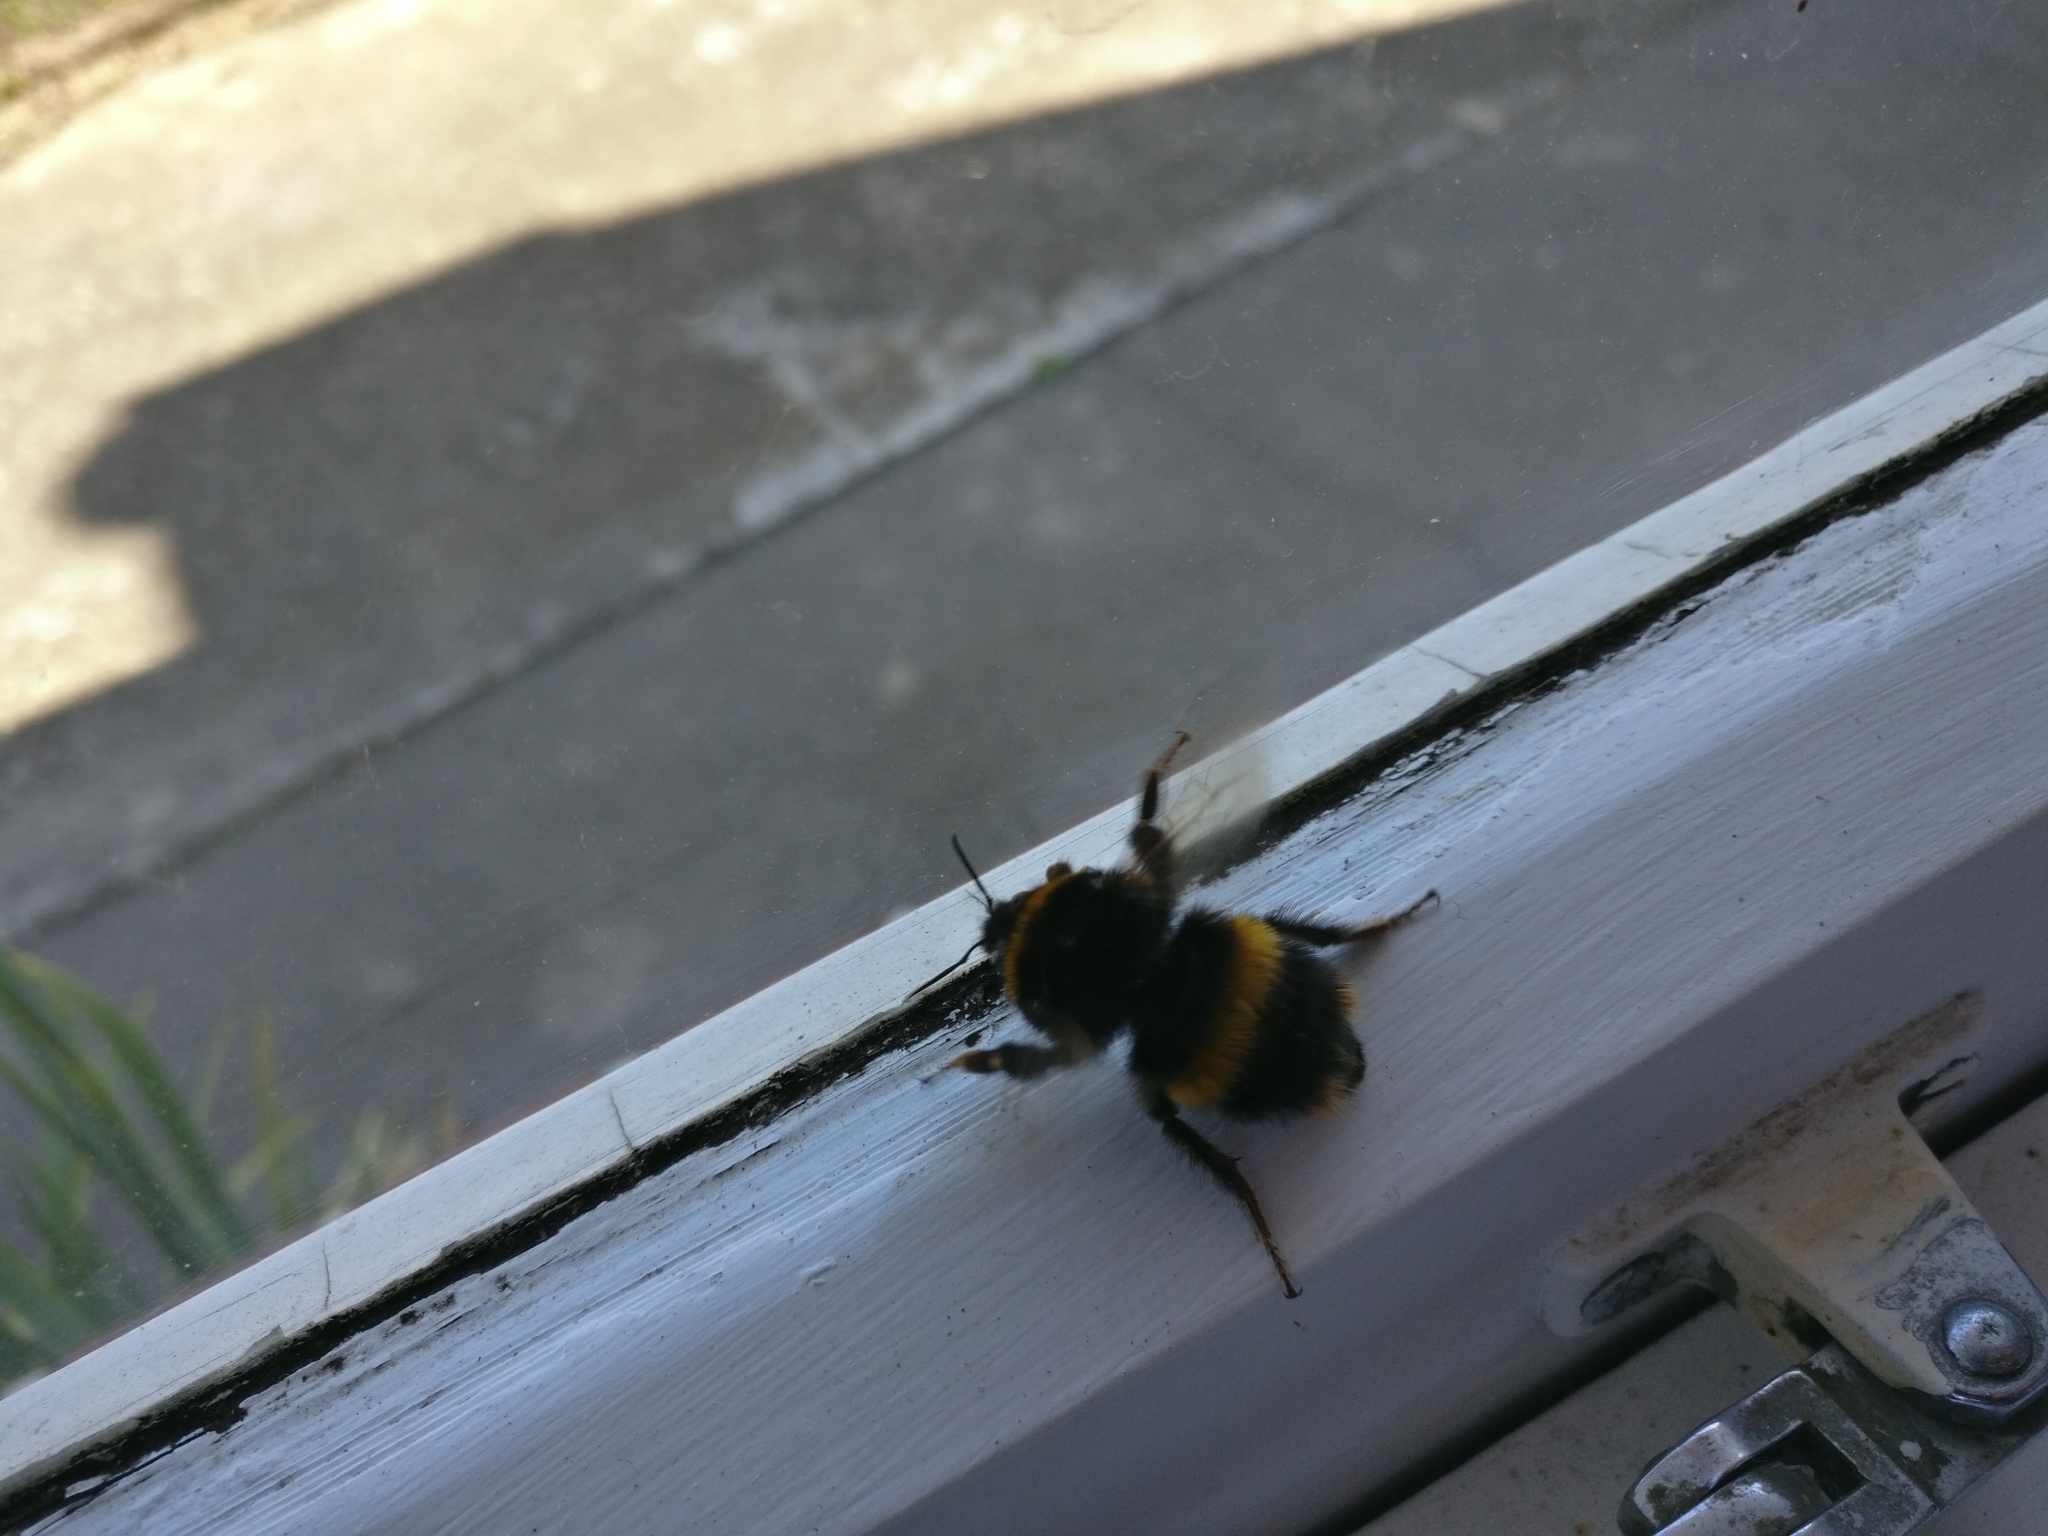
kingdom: Animalia
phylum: Arthropoda
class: Insecta
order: Hymenoptera
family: Apidae
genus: Bombus
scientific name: Bombus terrestris
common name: Buff-tailed bumblebee
